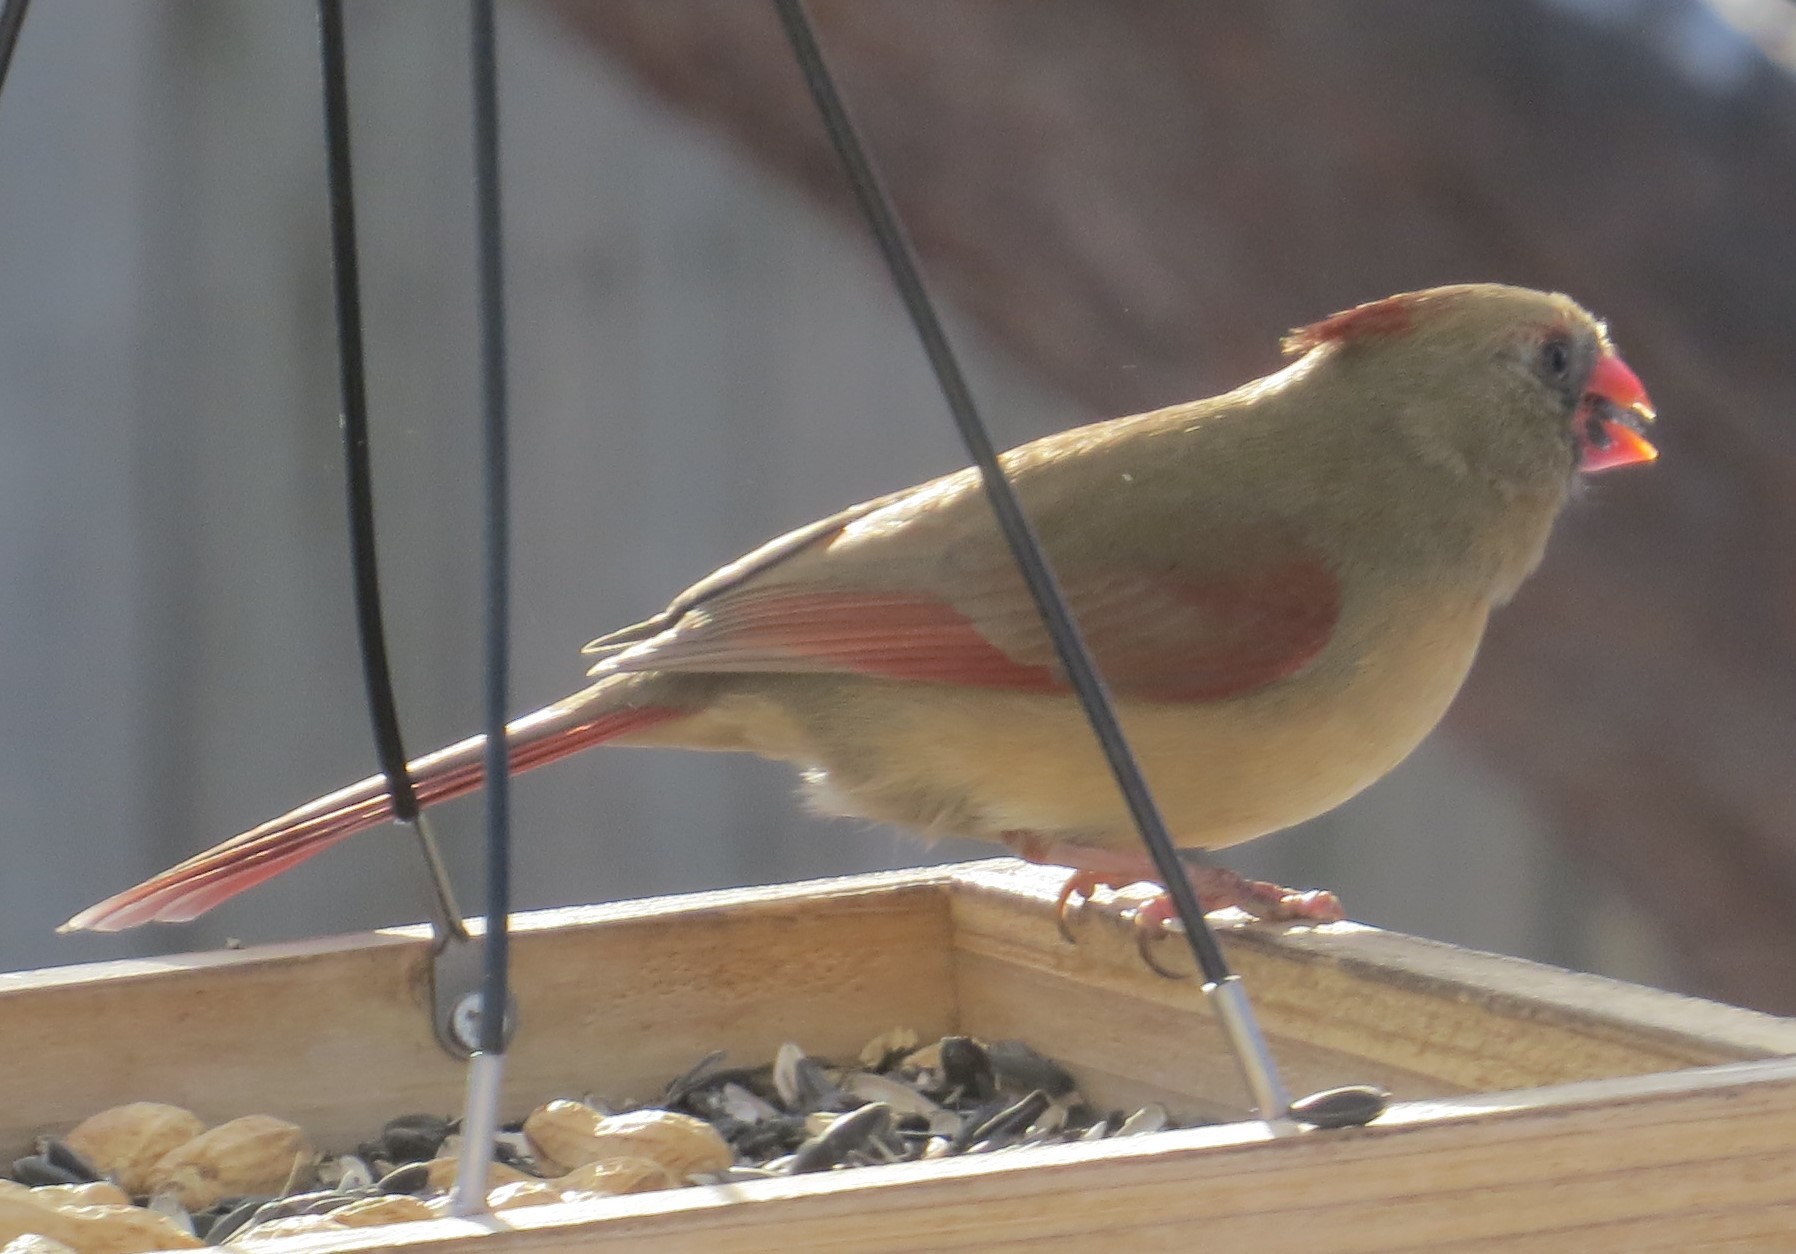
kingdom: Animalia
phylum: Chordata
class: Aves
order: Passeriformes
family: Cardinalidae
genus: Cardinalis
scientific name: Cardinalis cardinalis
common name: Northern cardinal
